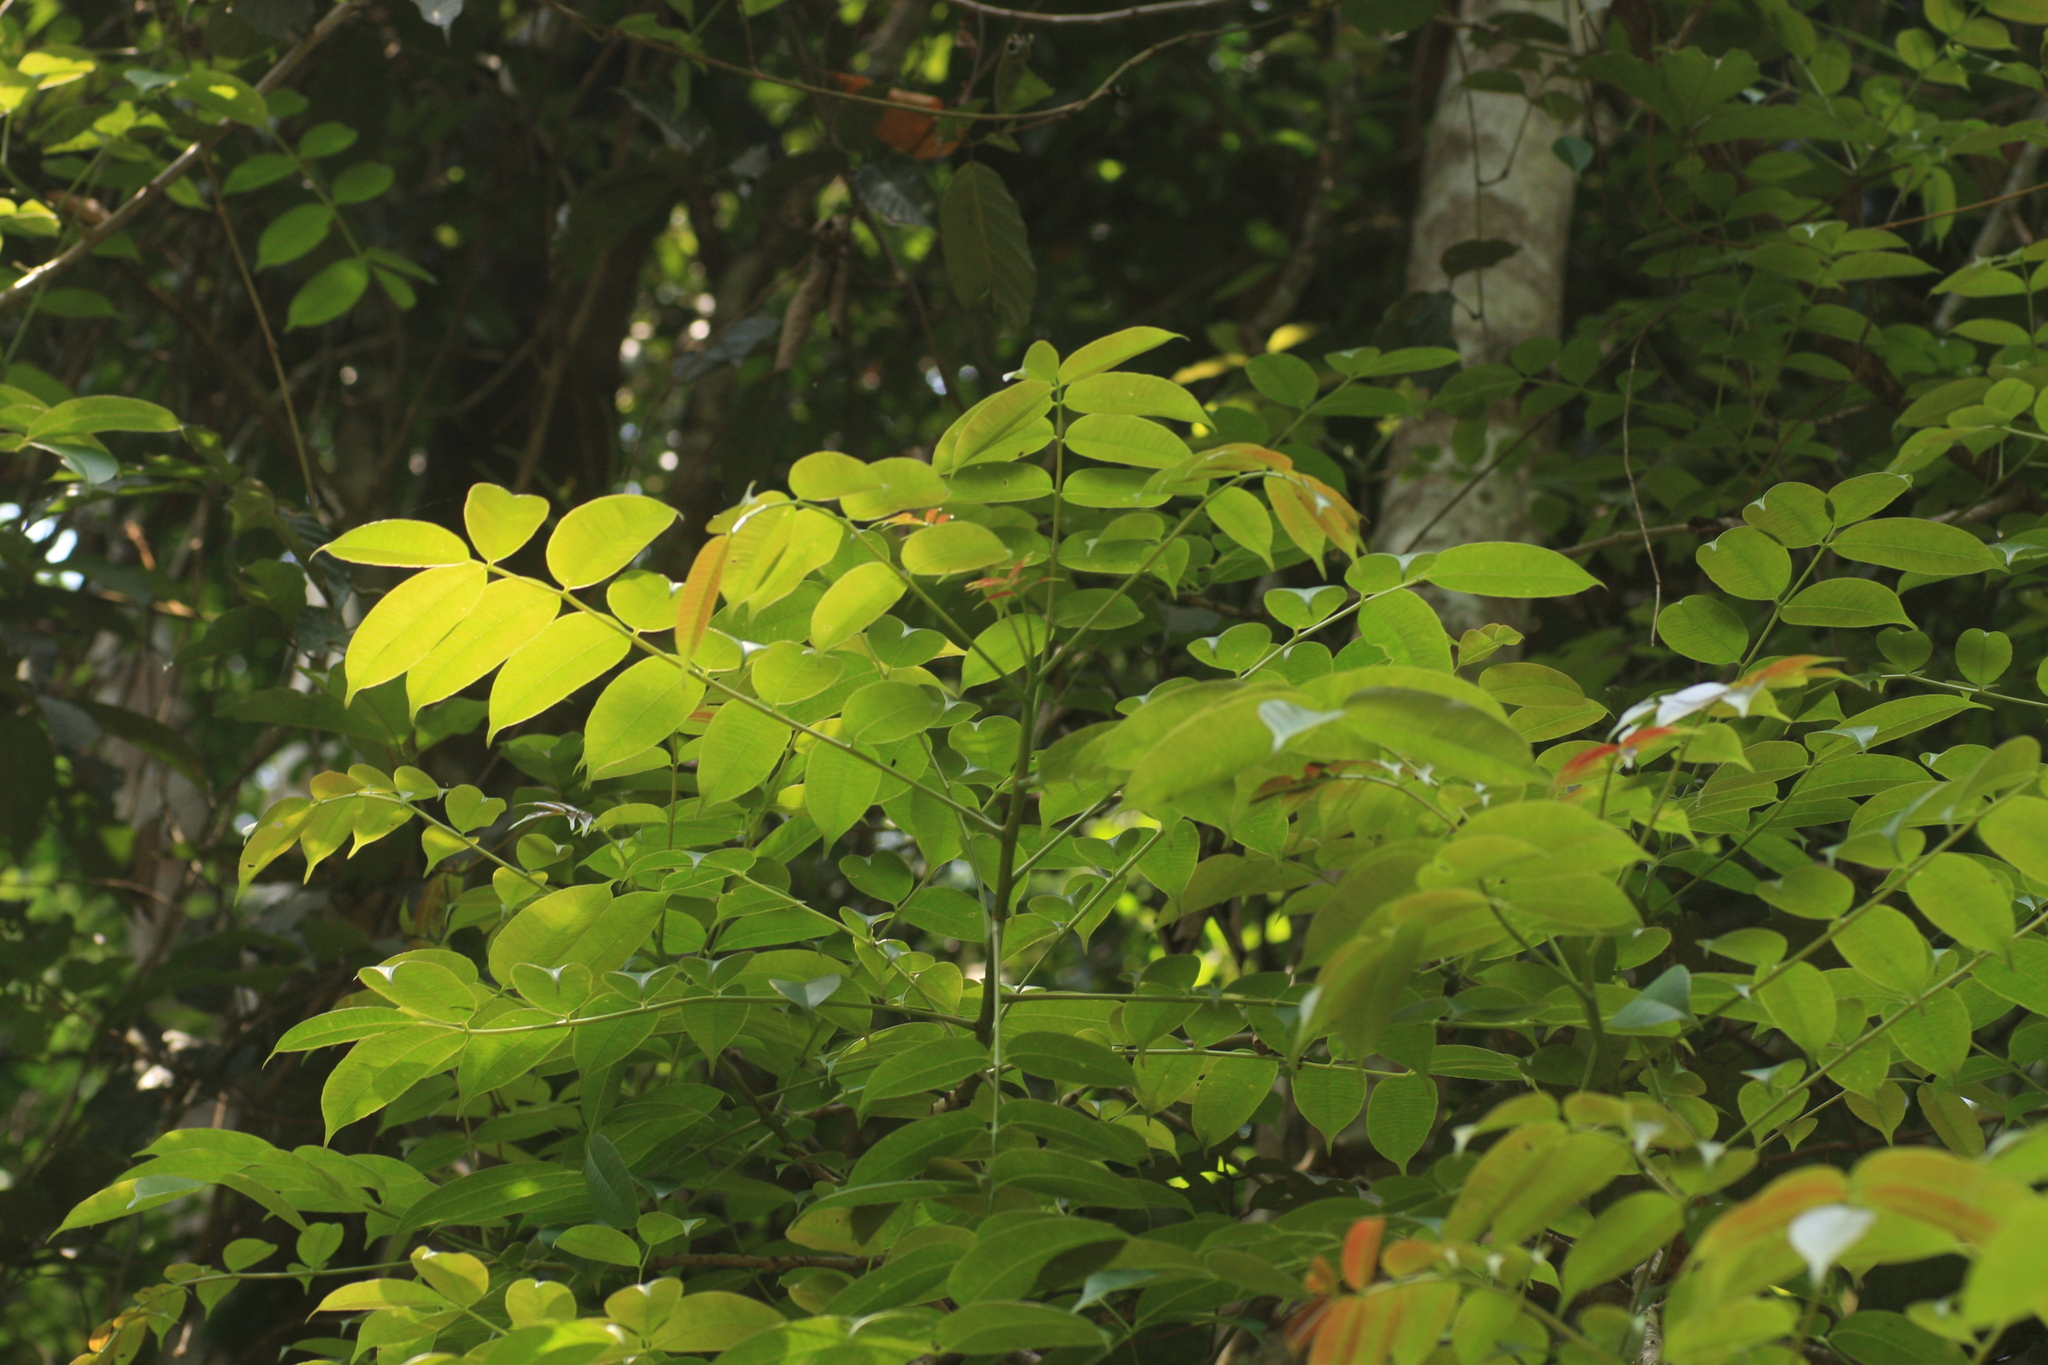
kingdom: Plantae
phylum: Tracheophyta
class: Magnoliopsida
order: Sapindales
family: Anacardiaceae
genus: Spondias
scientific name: Spondias pinnata
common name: Common hog-plum
